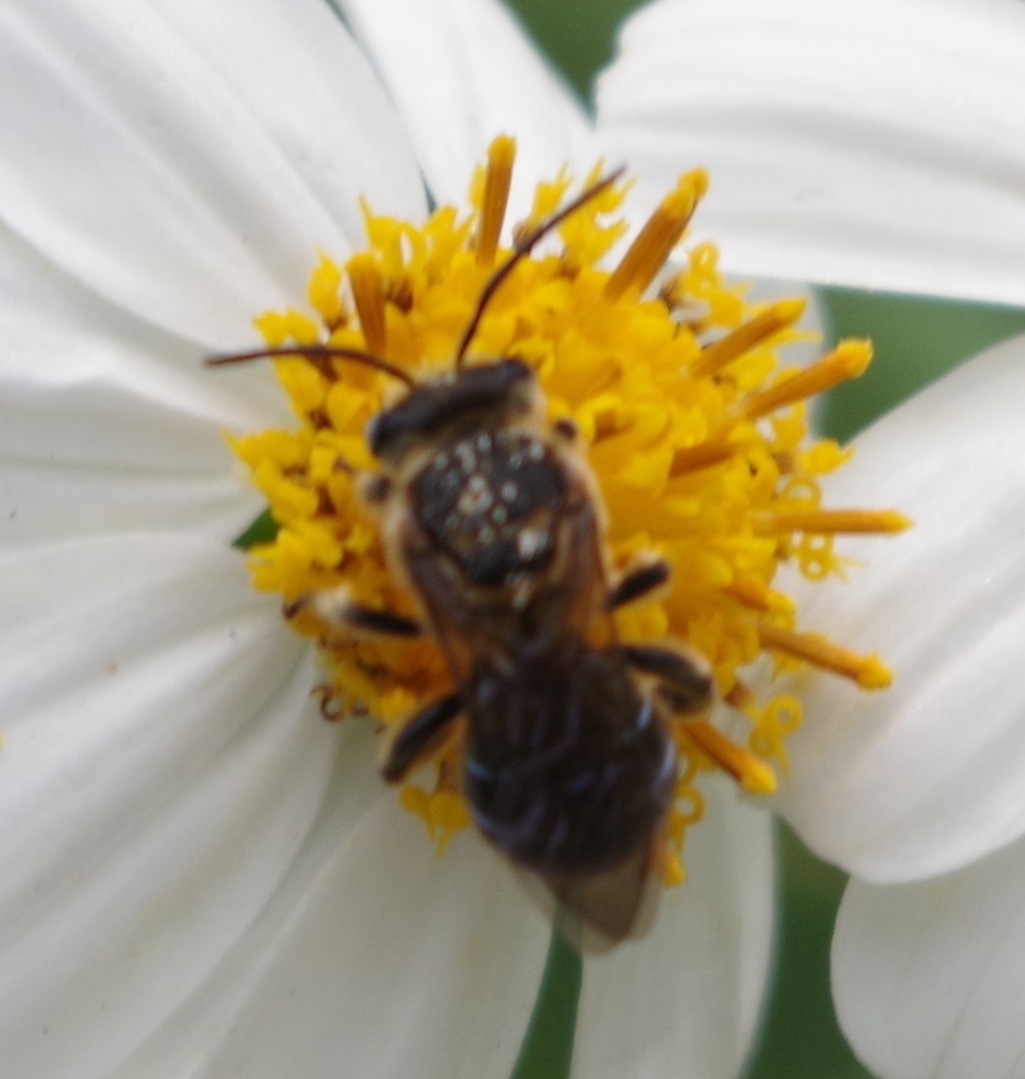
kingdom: Animalia
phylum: Arthropoda
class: Insecta
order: Hymenoptera
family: Halictidae
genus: Nomia
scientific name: Nomia strigata
